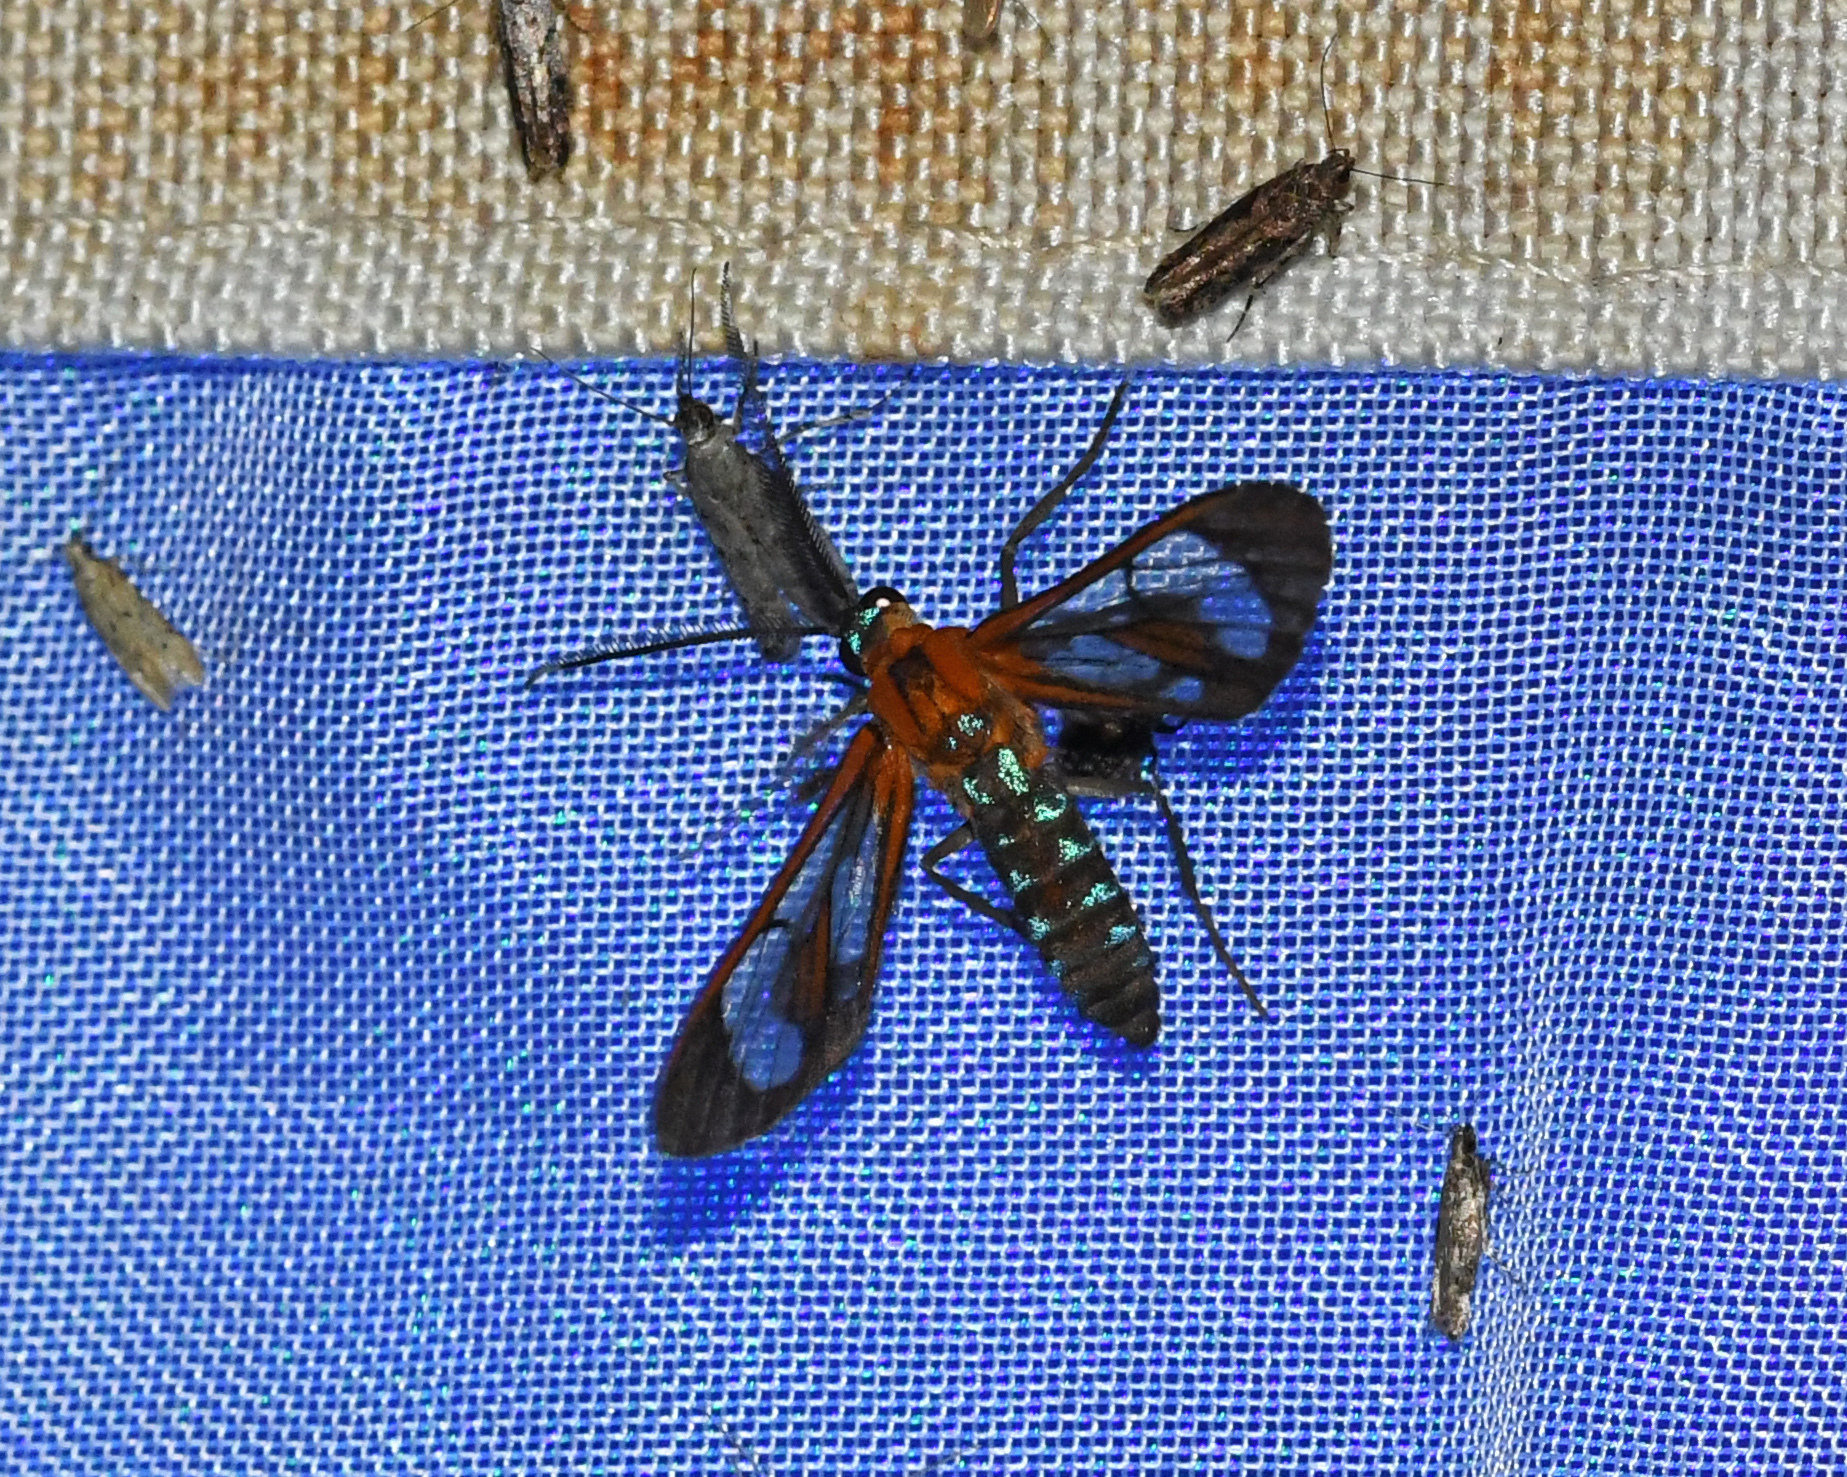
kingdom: Animalia
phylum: Arthropoda
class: Insecta
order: Lepidoptera
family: Erebidae
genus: Cosmosoma
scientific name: Cosmosoma achemon
